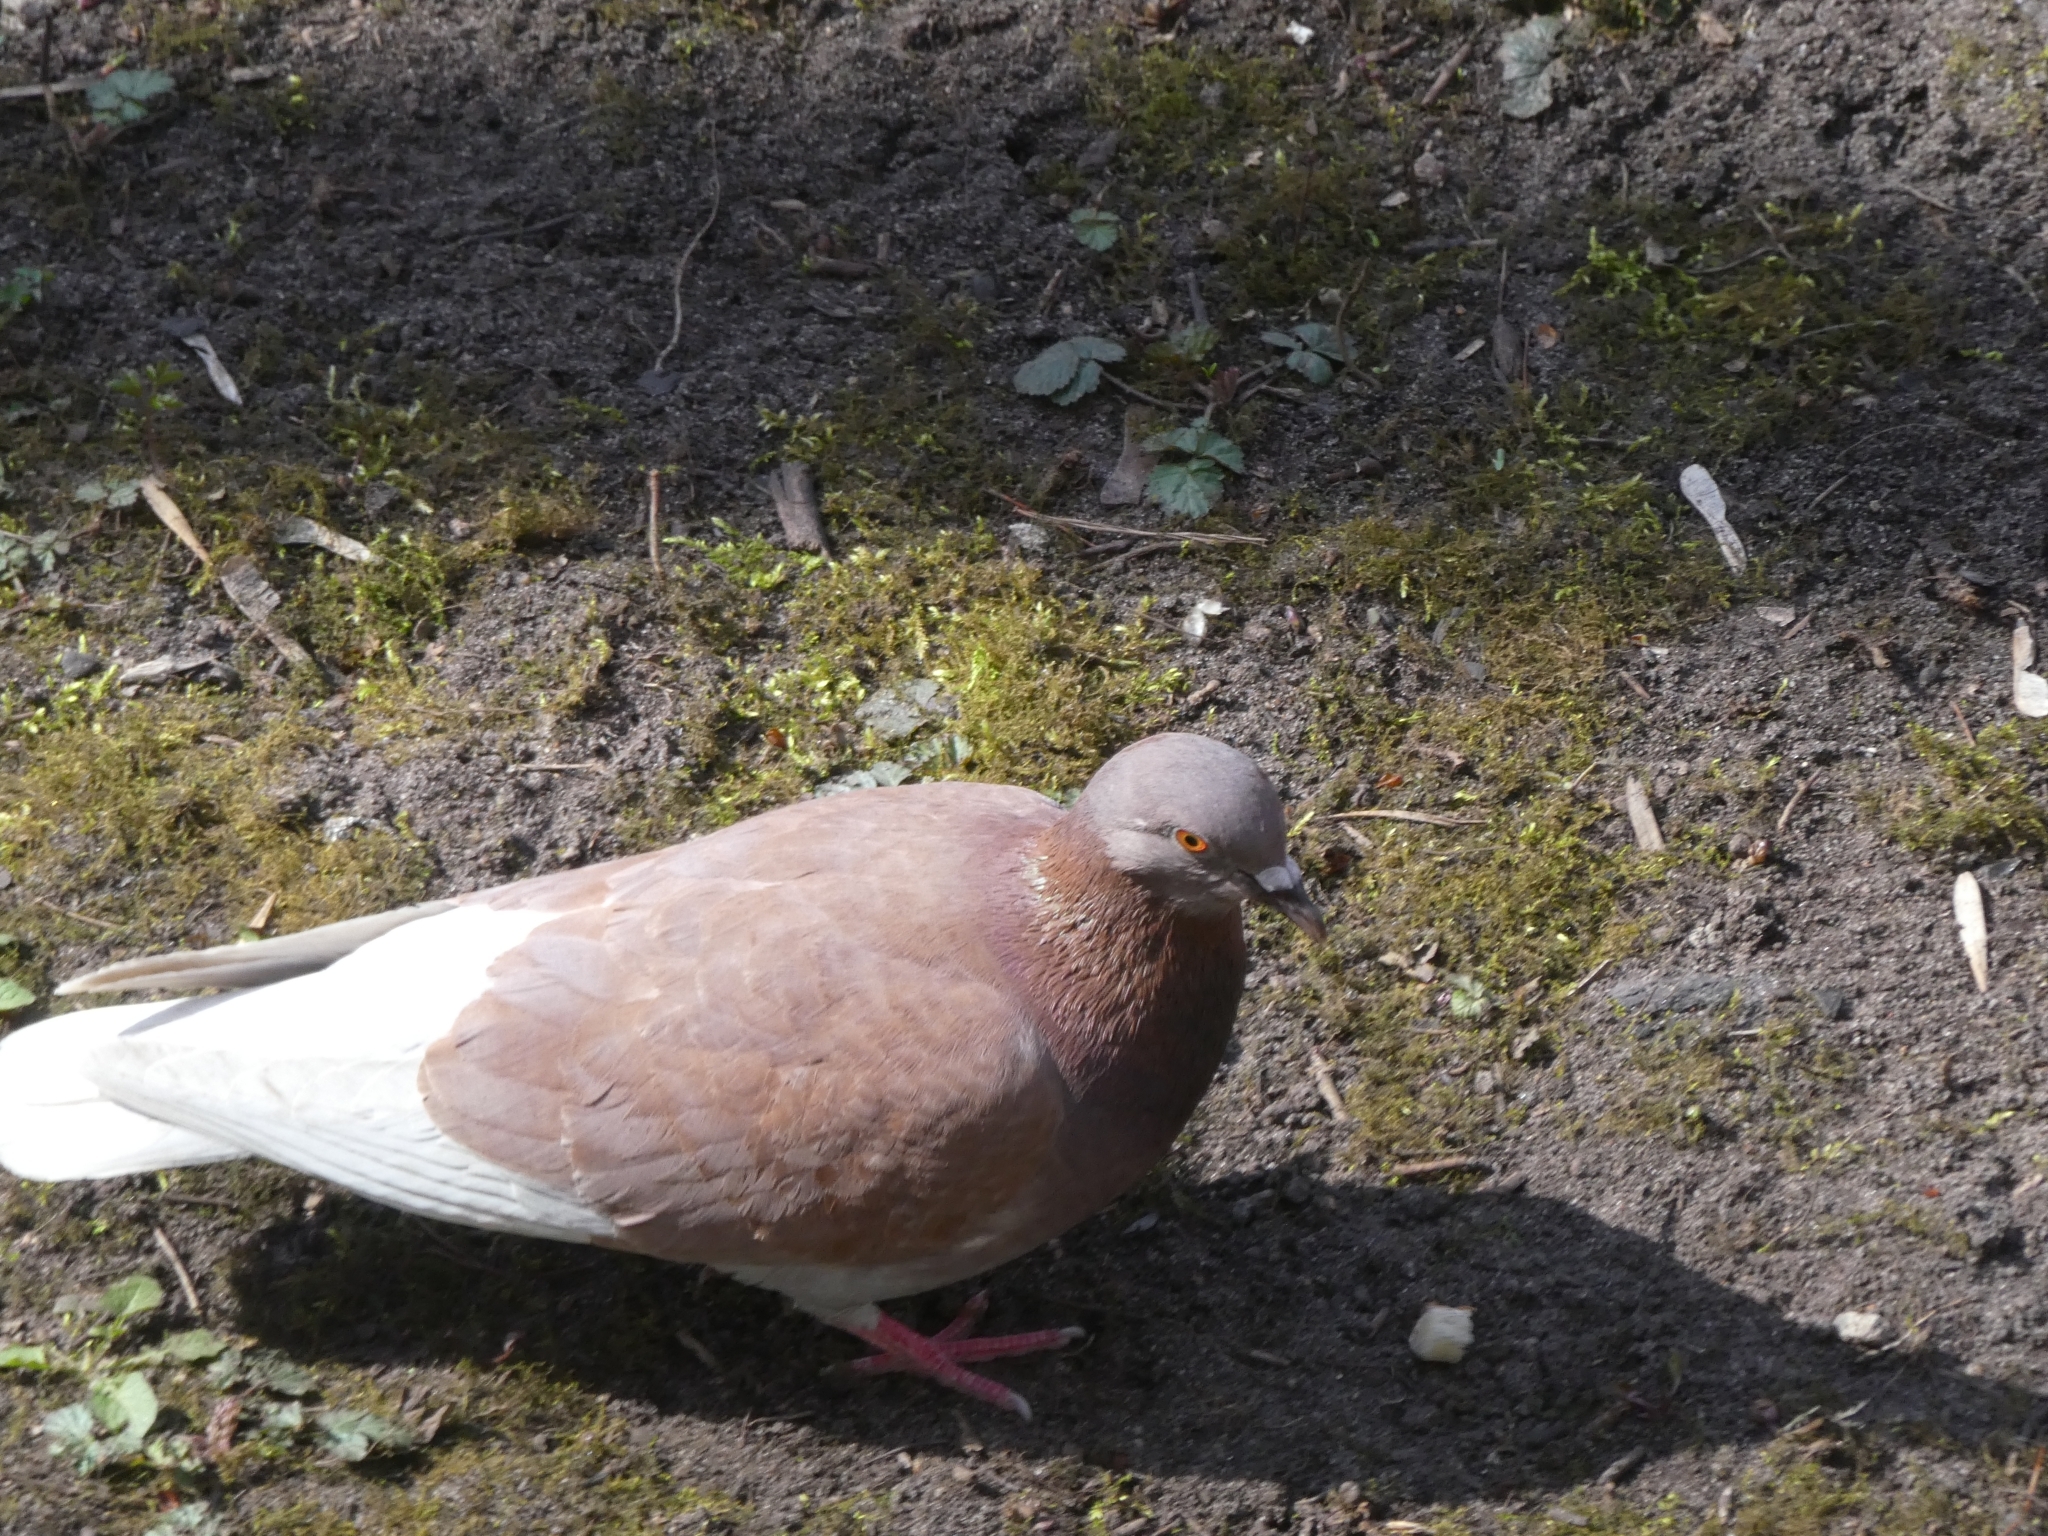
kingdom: Animalia
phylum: Chordata
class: Aves
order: Columbiformes
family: Columbidae
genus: Columba
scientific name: Columba livia
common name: Rock pigeon
